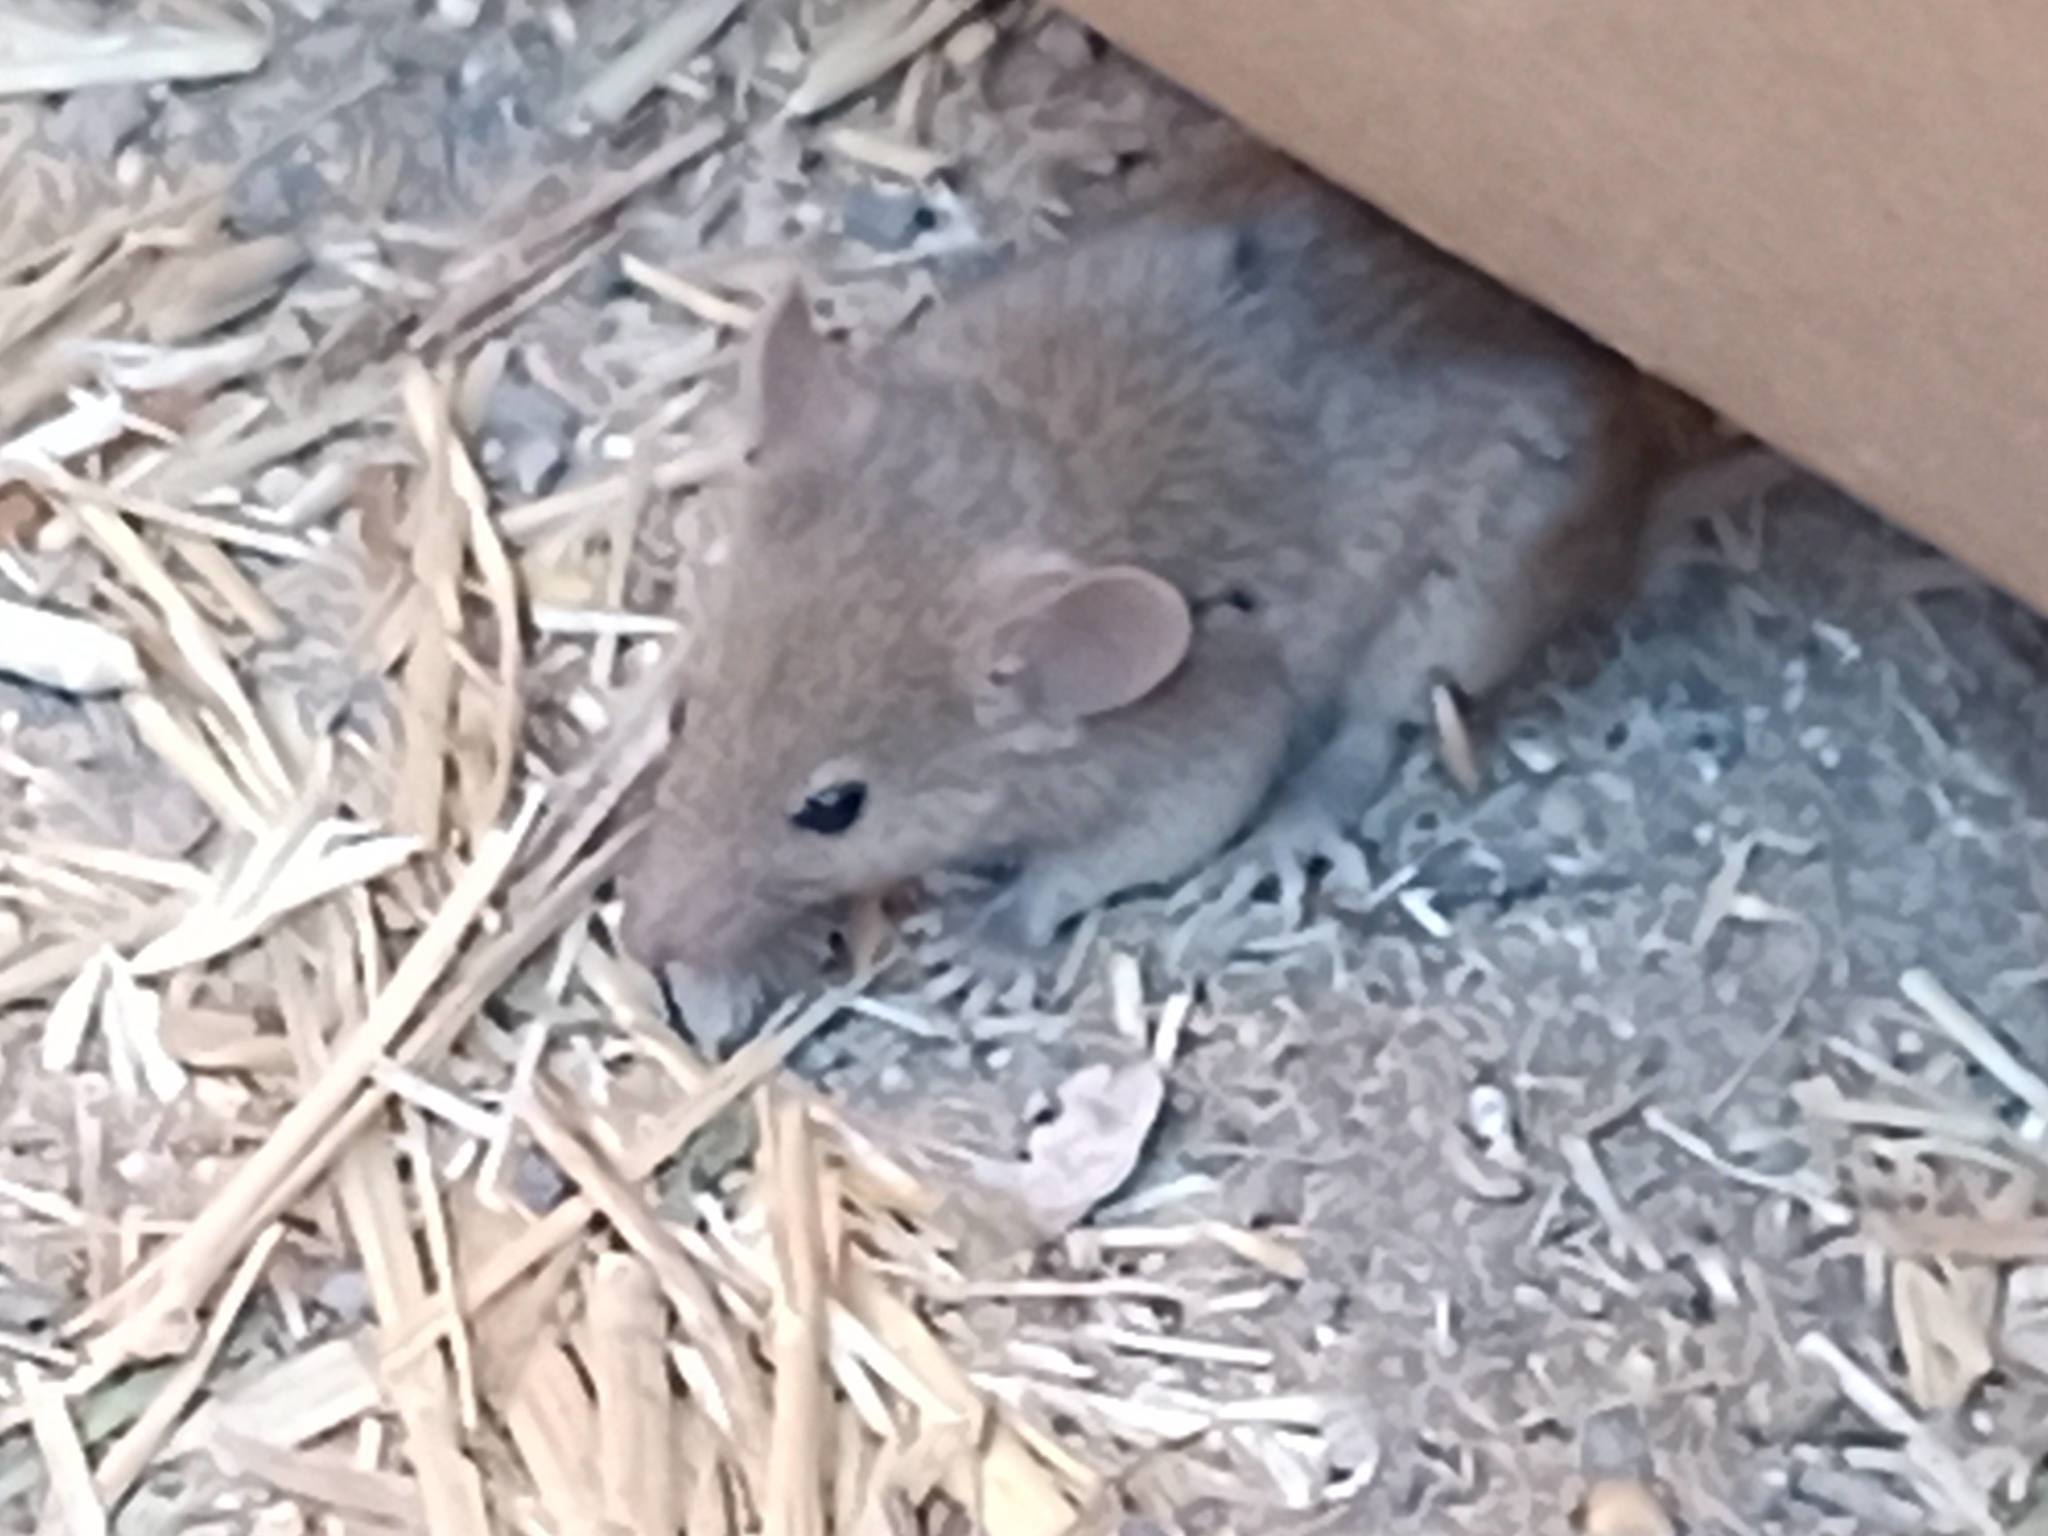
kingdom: Animalia
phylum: Chordata
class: Mammalia
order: Rodentia
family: Muridae
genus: Mus
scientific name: Mus musculus
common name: House mouse
